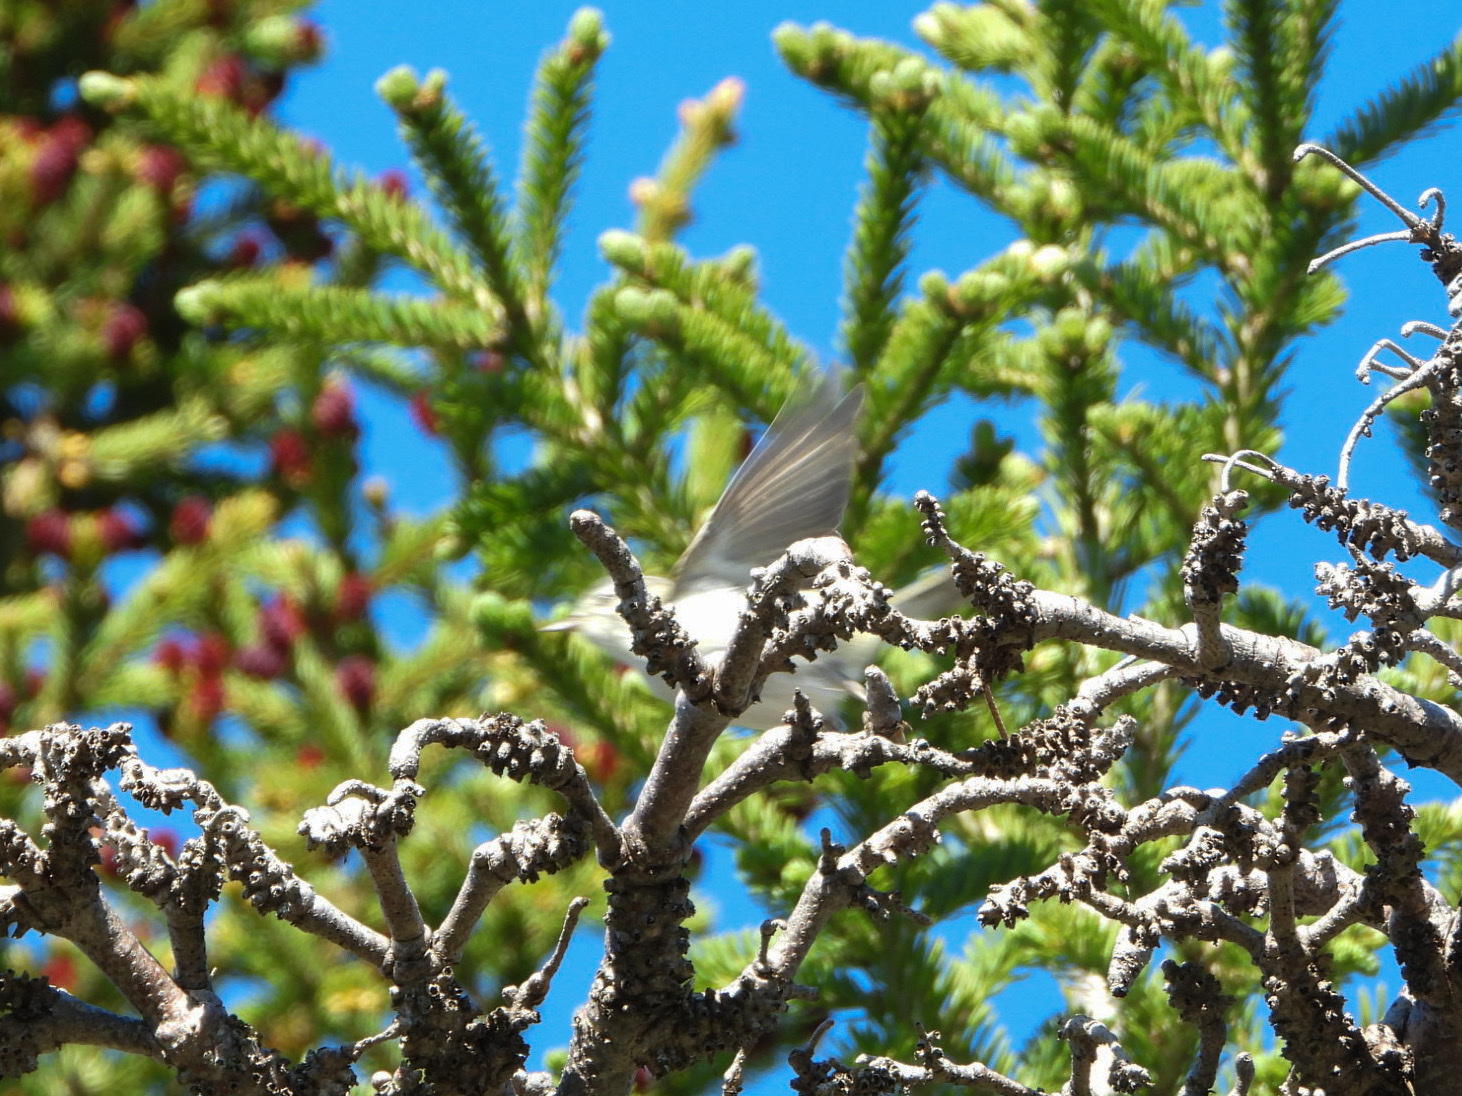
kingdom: Animalia
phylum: Chordata
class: Aves
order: Passeriformes
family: Parulidae
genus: Leiothlypis
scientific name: Leiothlypis peregrina
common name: Tennessee warbler
